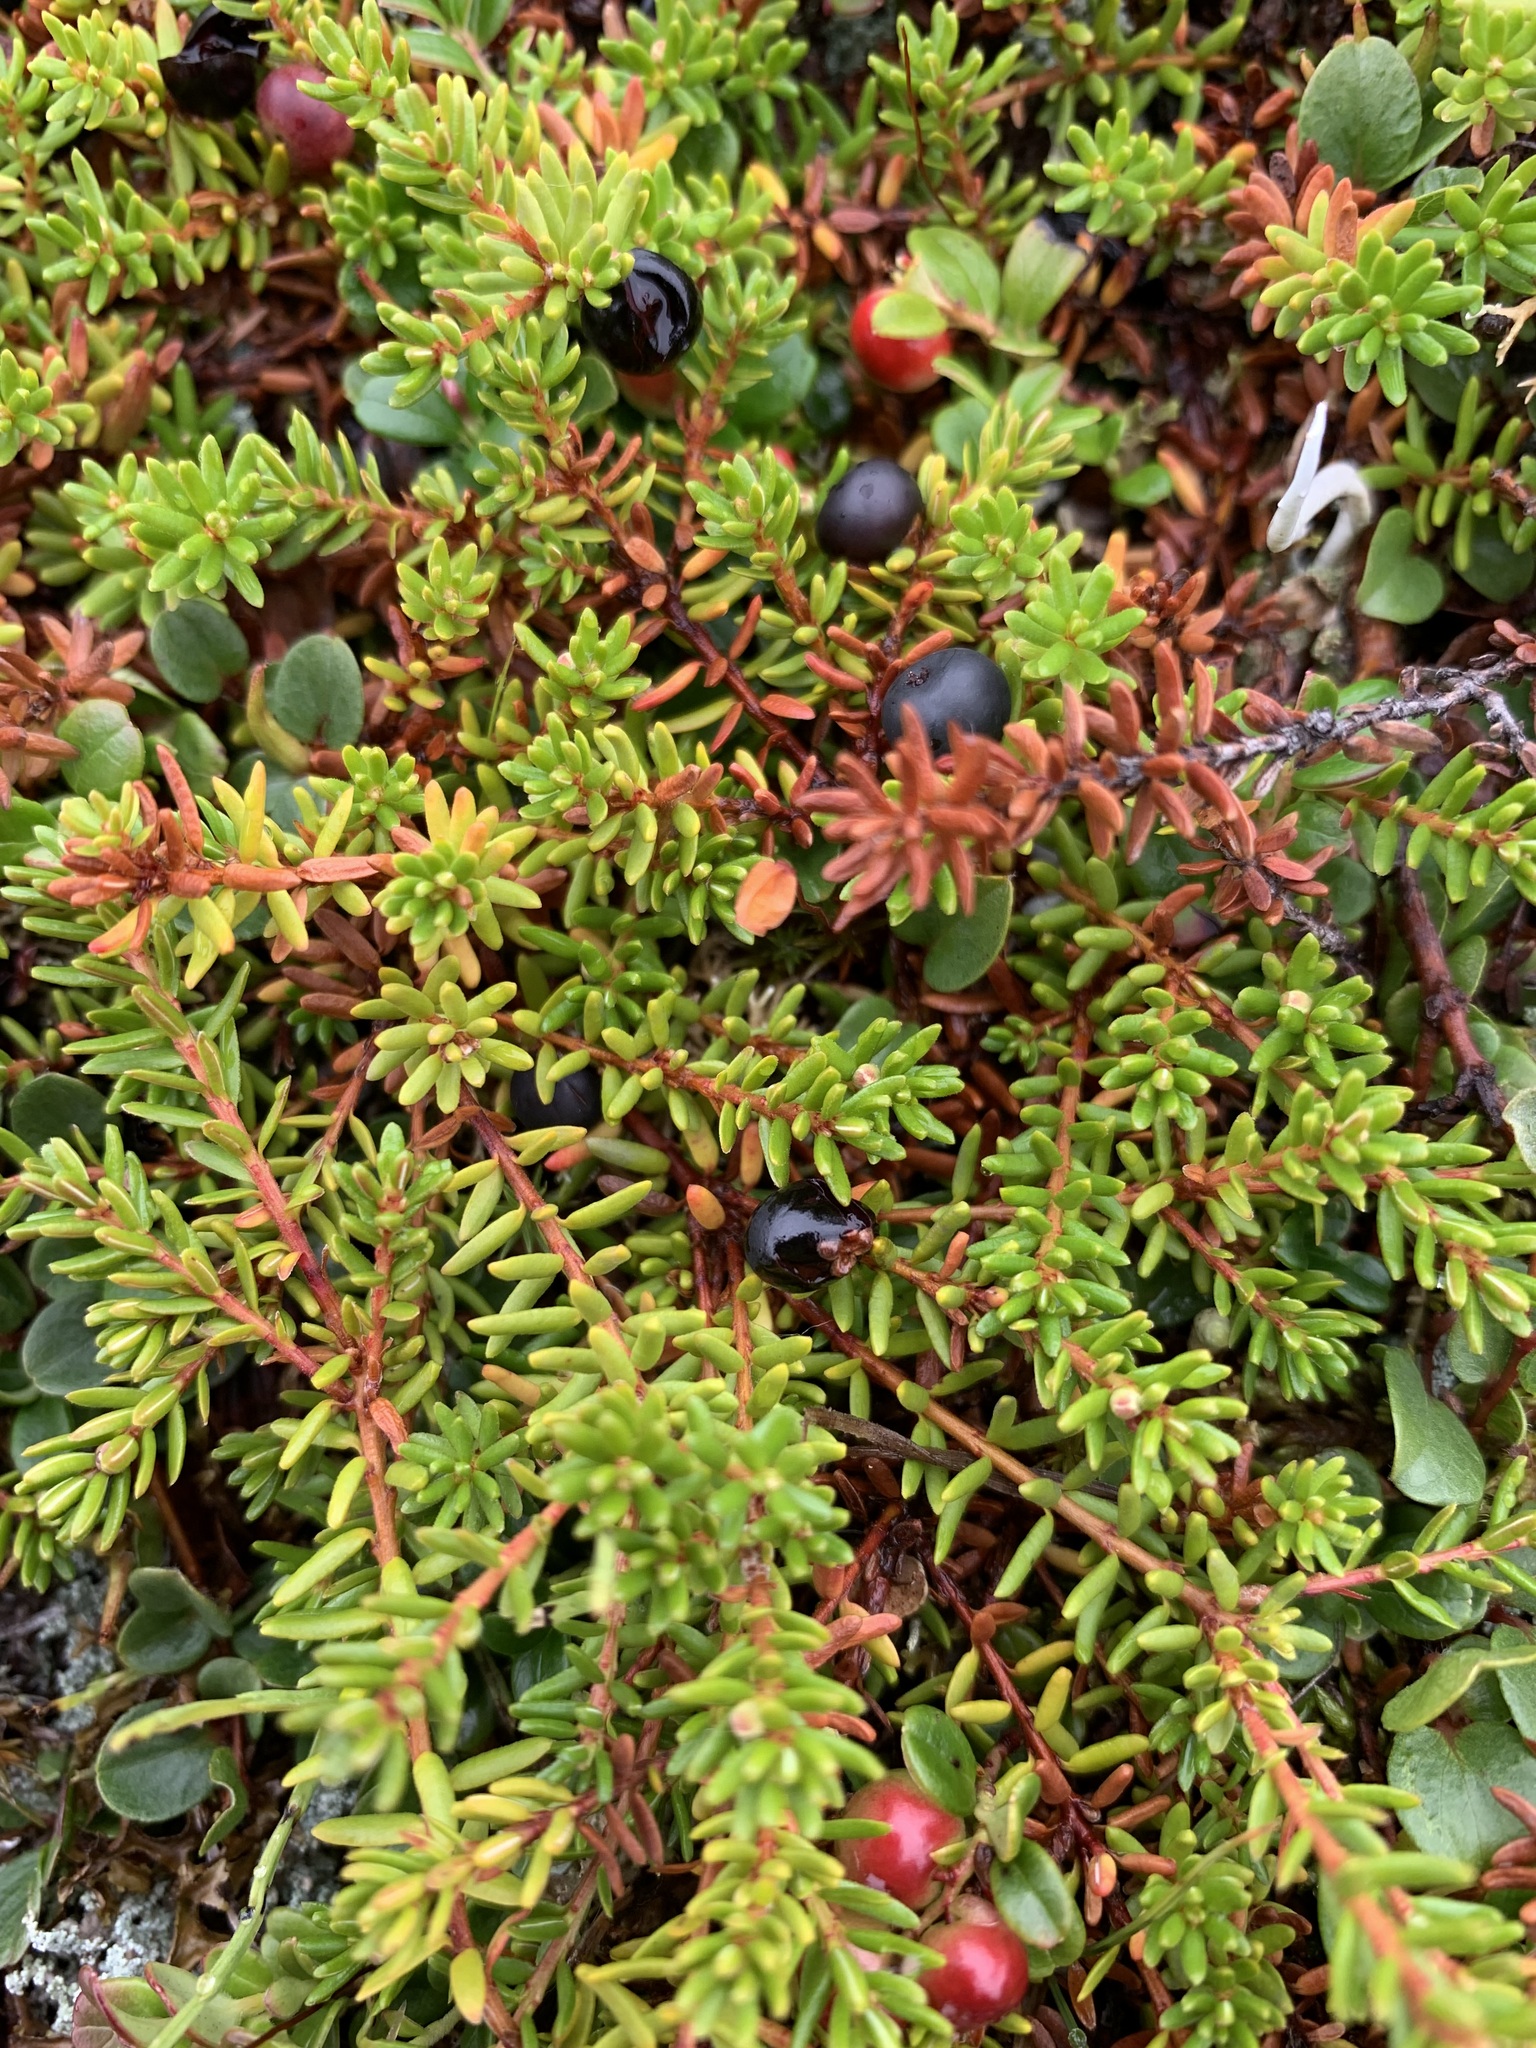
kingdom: Plantae
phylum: Tracheophyta
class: Magnoliopsida
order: Ericales
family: Ericaceae
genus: Empetrum
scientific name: Empetrum nigrum
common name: Black crowberry
